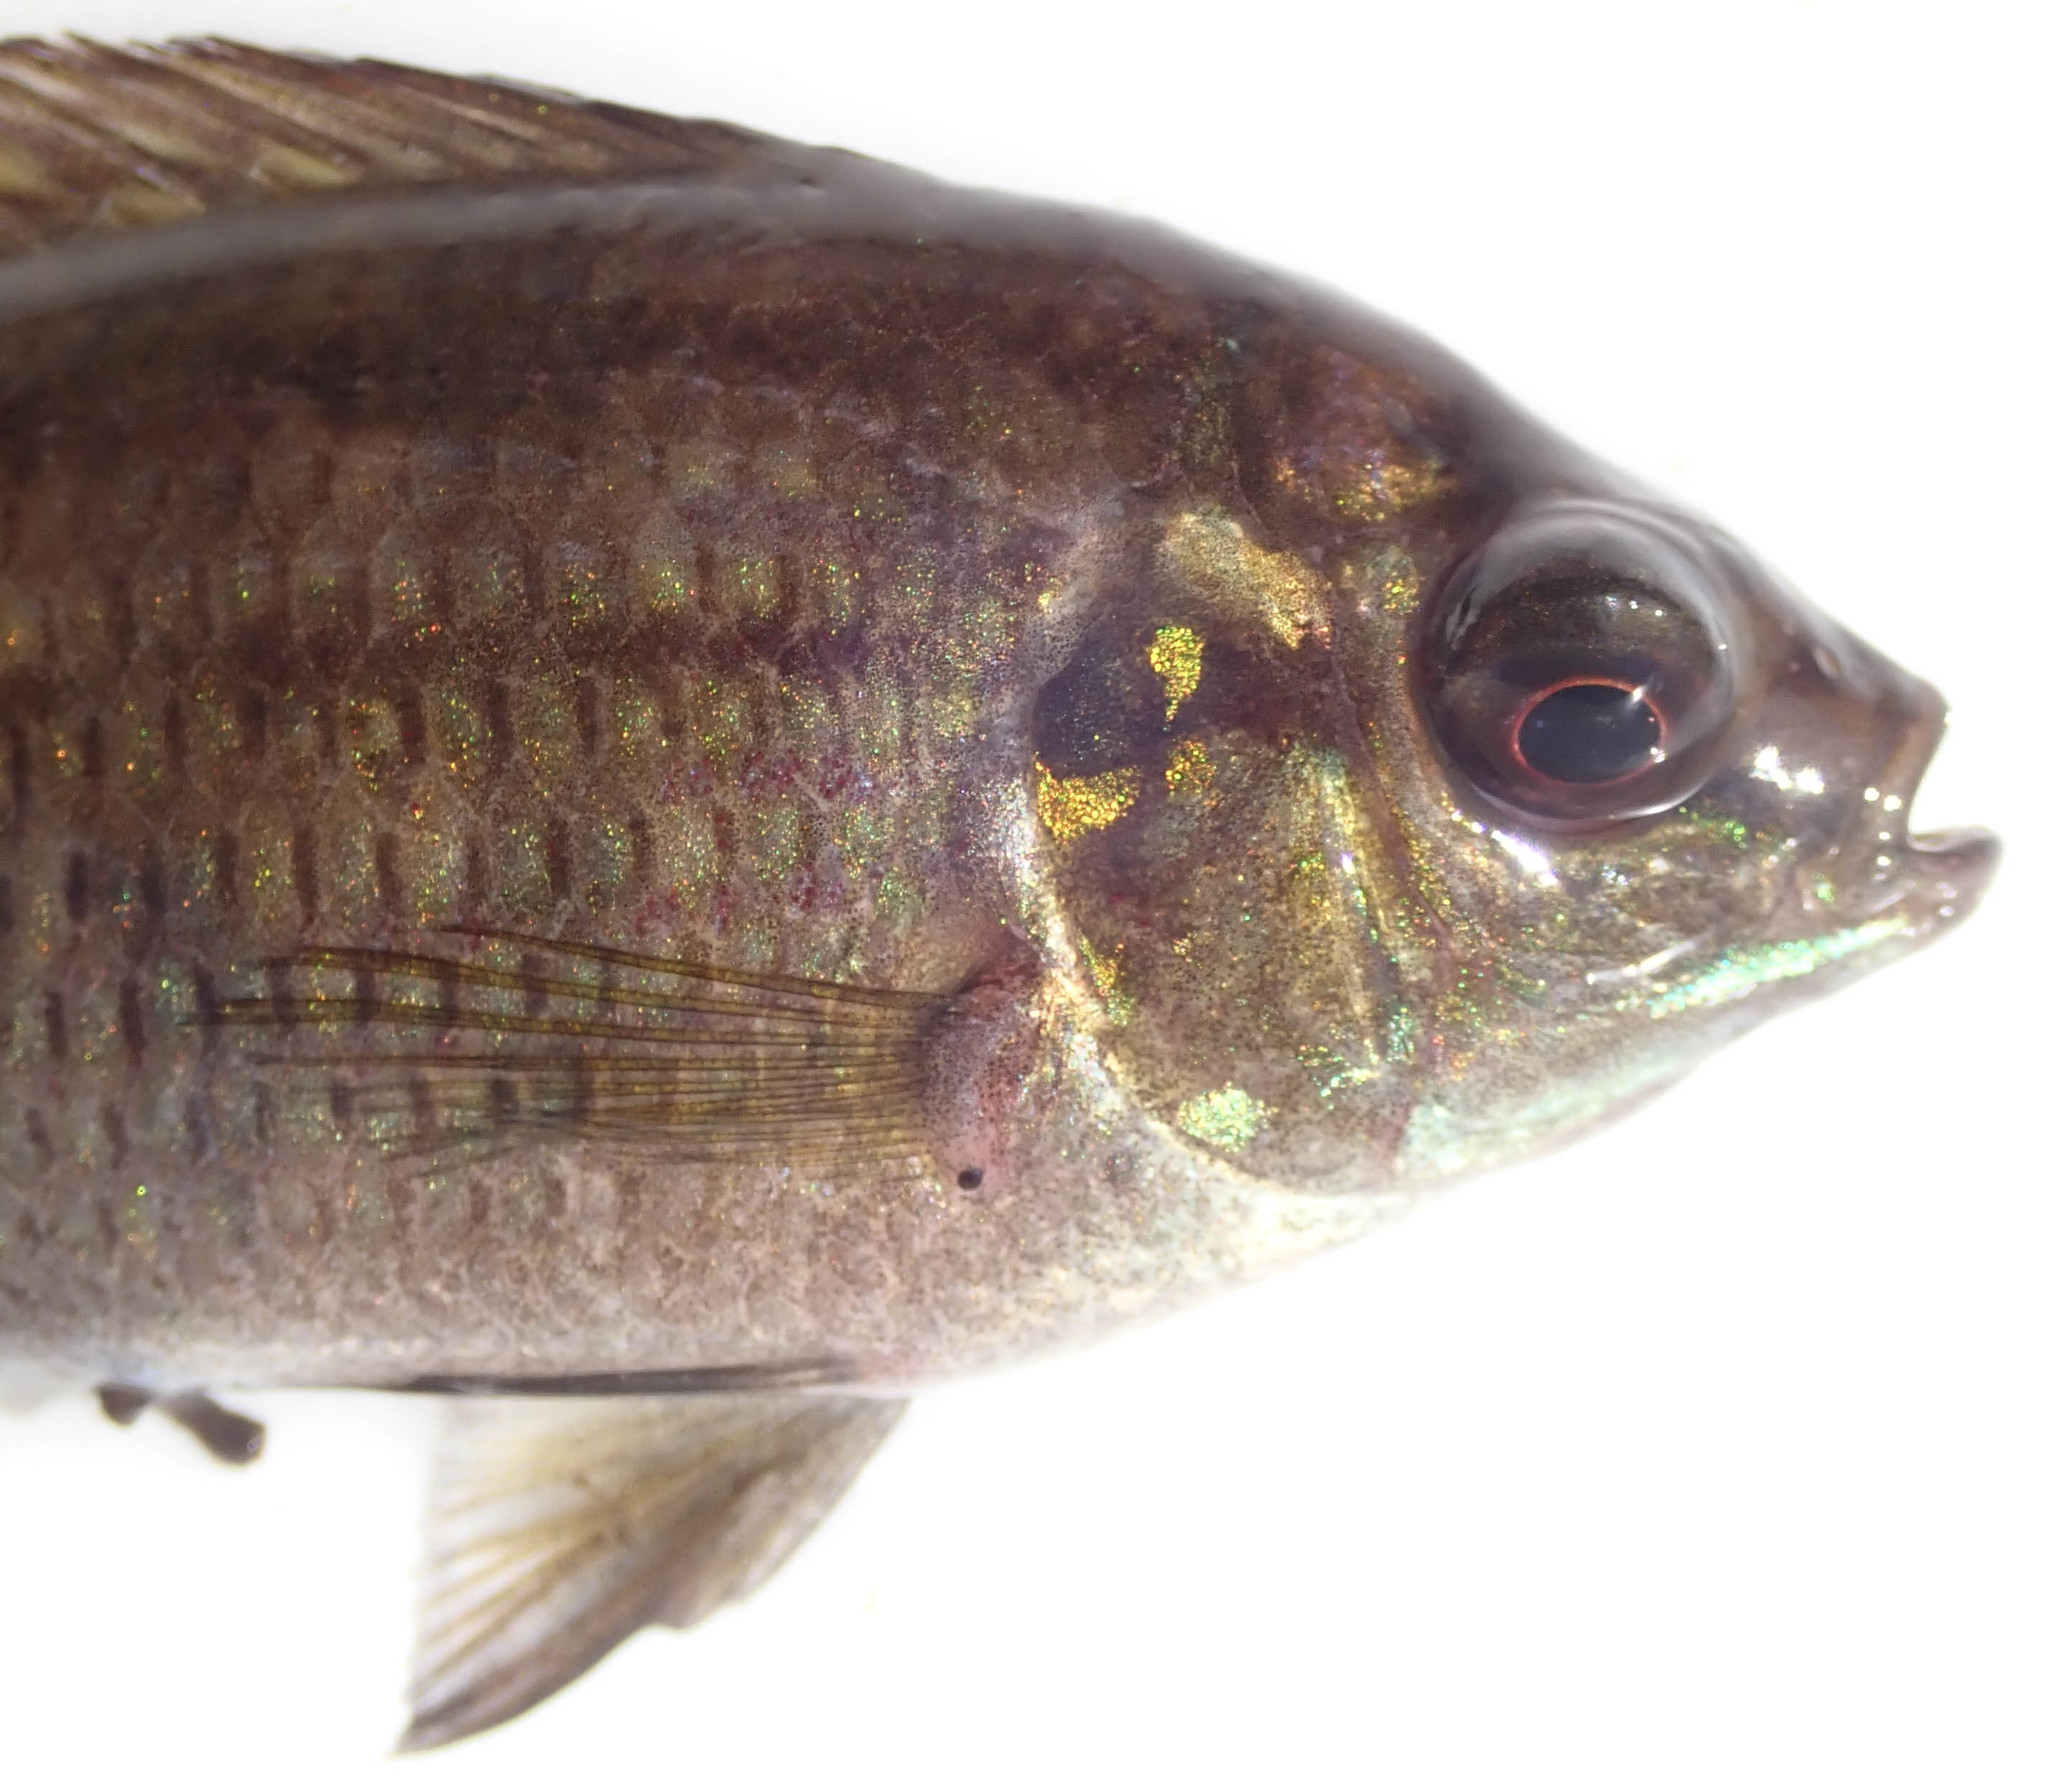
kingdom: Animalia
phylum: Chordata
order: Perciformes
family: Cichlidae
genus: Tilapia
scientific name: Tilapia sparrmanii
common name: Banded tilapia
